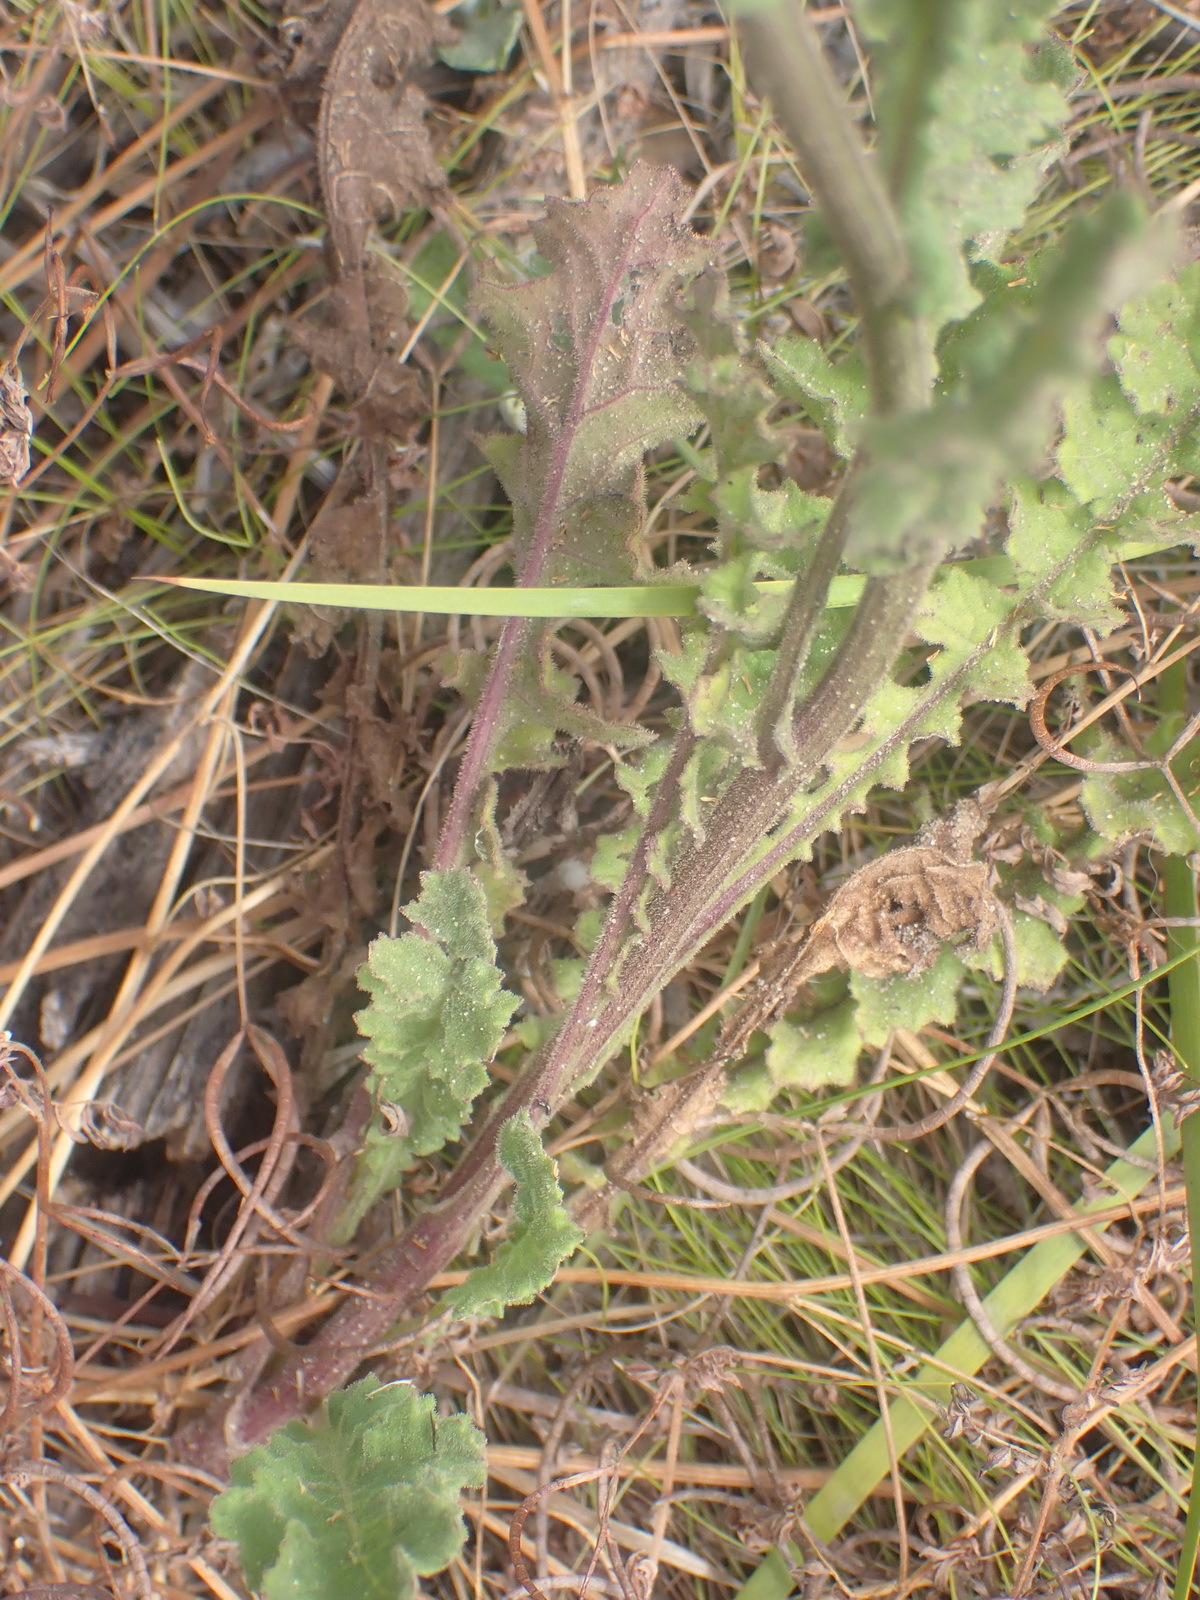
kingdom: Plantae
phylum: Tracheophyta
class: Magnoliopsida
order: Asterales
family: Asteraceae
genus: Senecio
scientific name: Senecio purpureus
